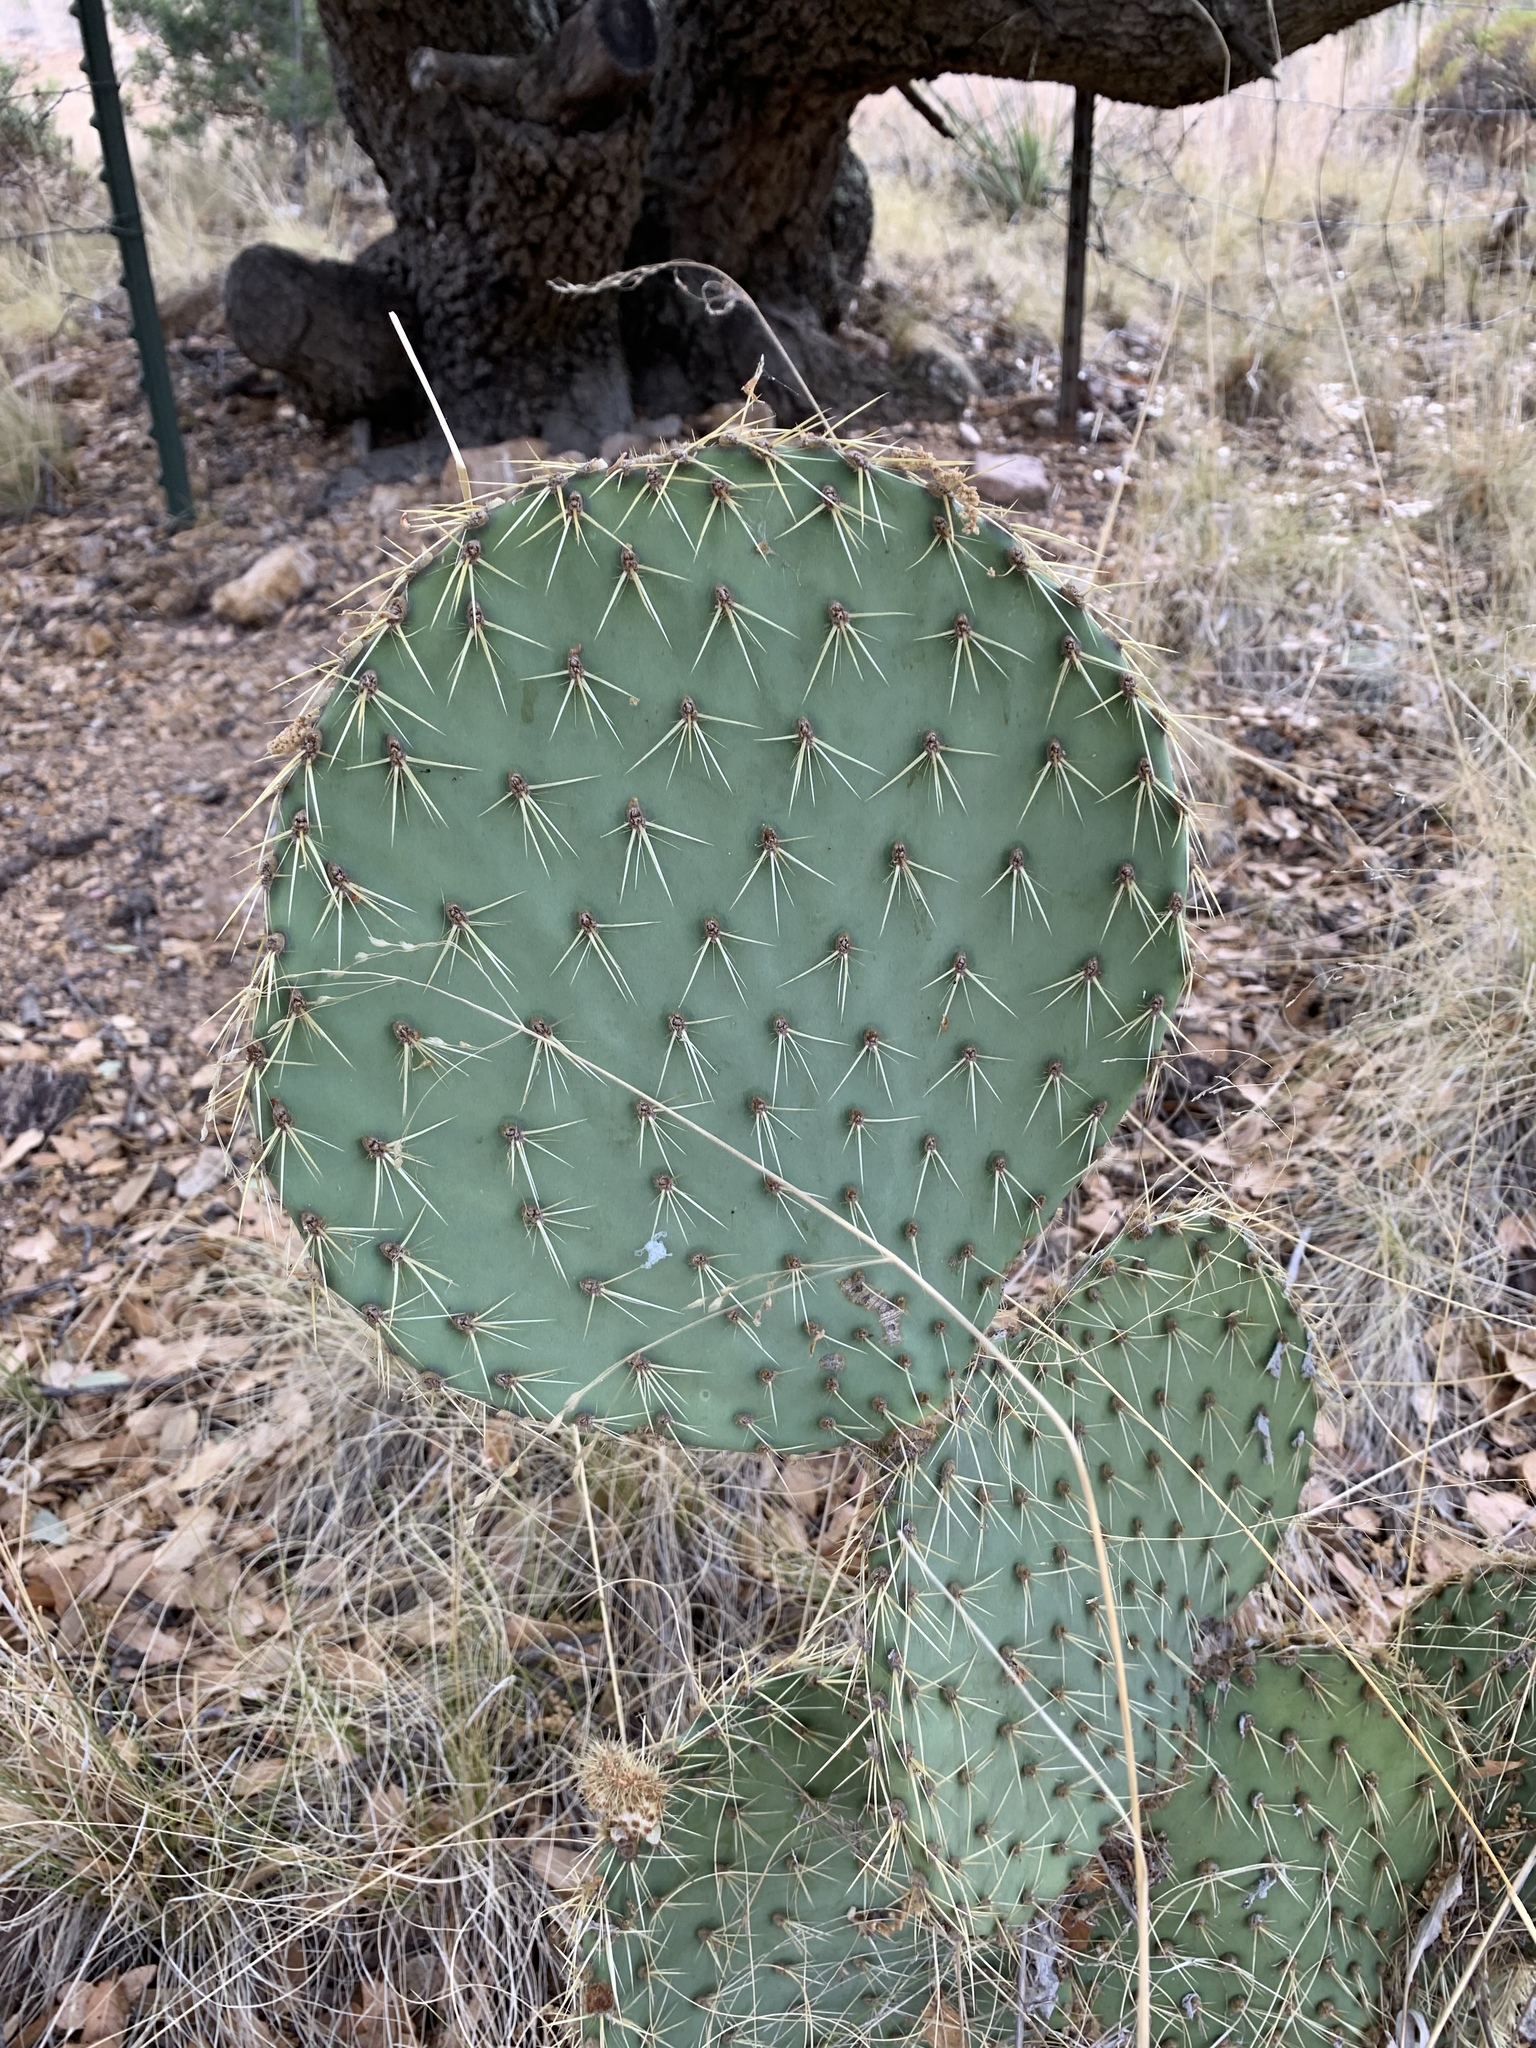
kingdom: Plantae
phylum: Tracheophyta
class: Magnoliopsida
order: Caryophyllales
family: Cactaceae
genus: Opuntia
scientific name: Opuntia chlorotica
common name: Dollar-joint prickly-pear
